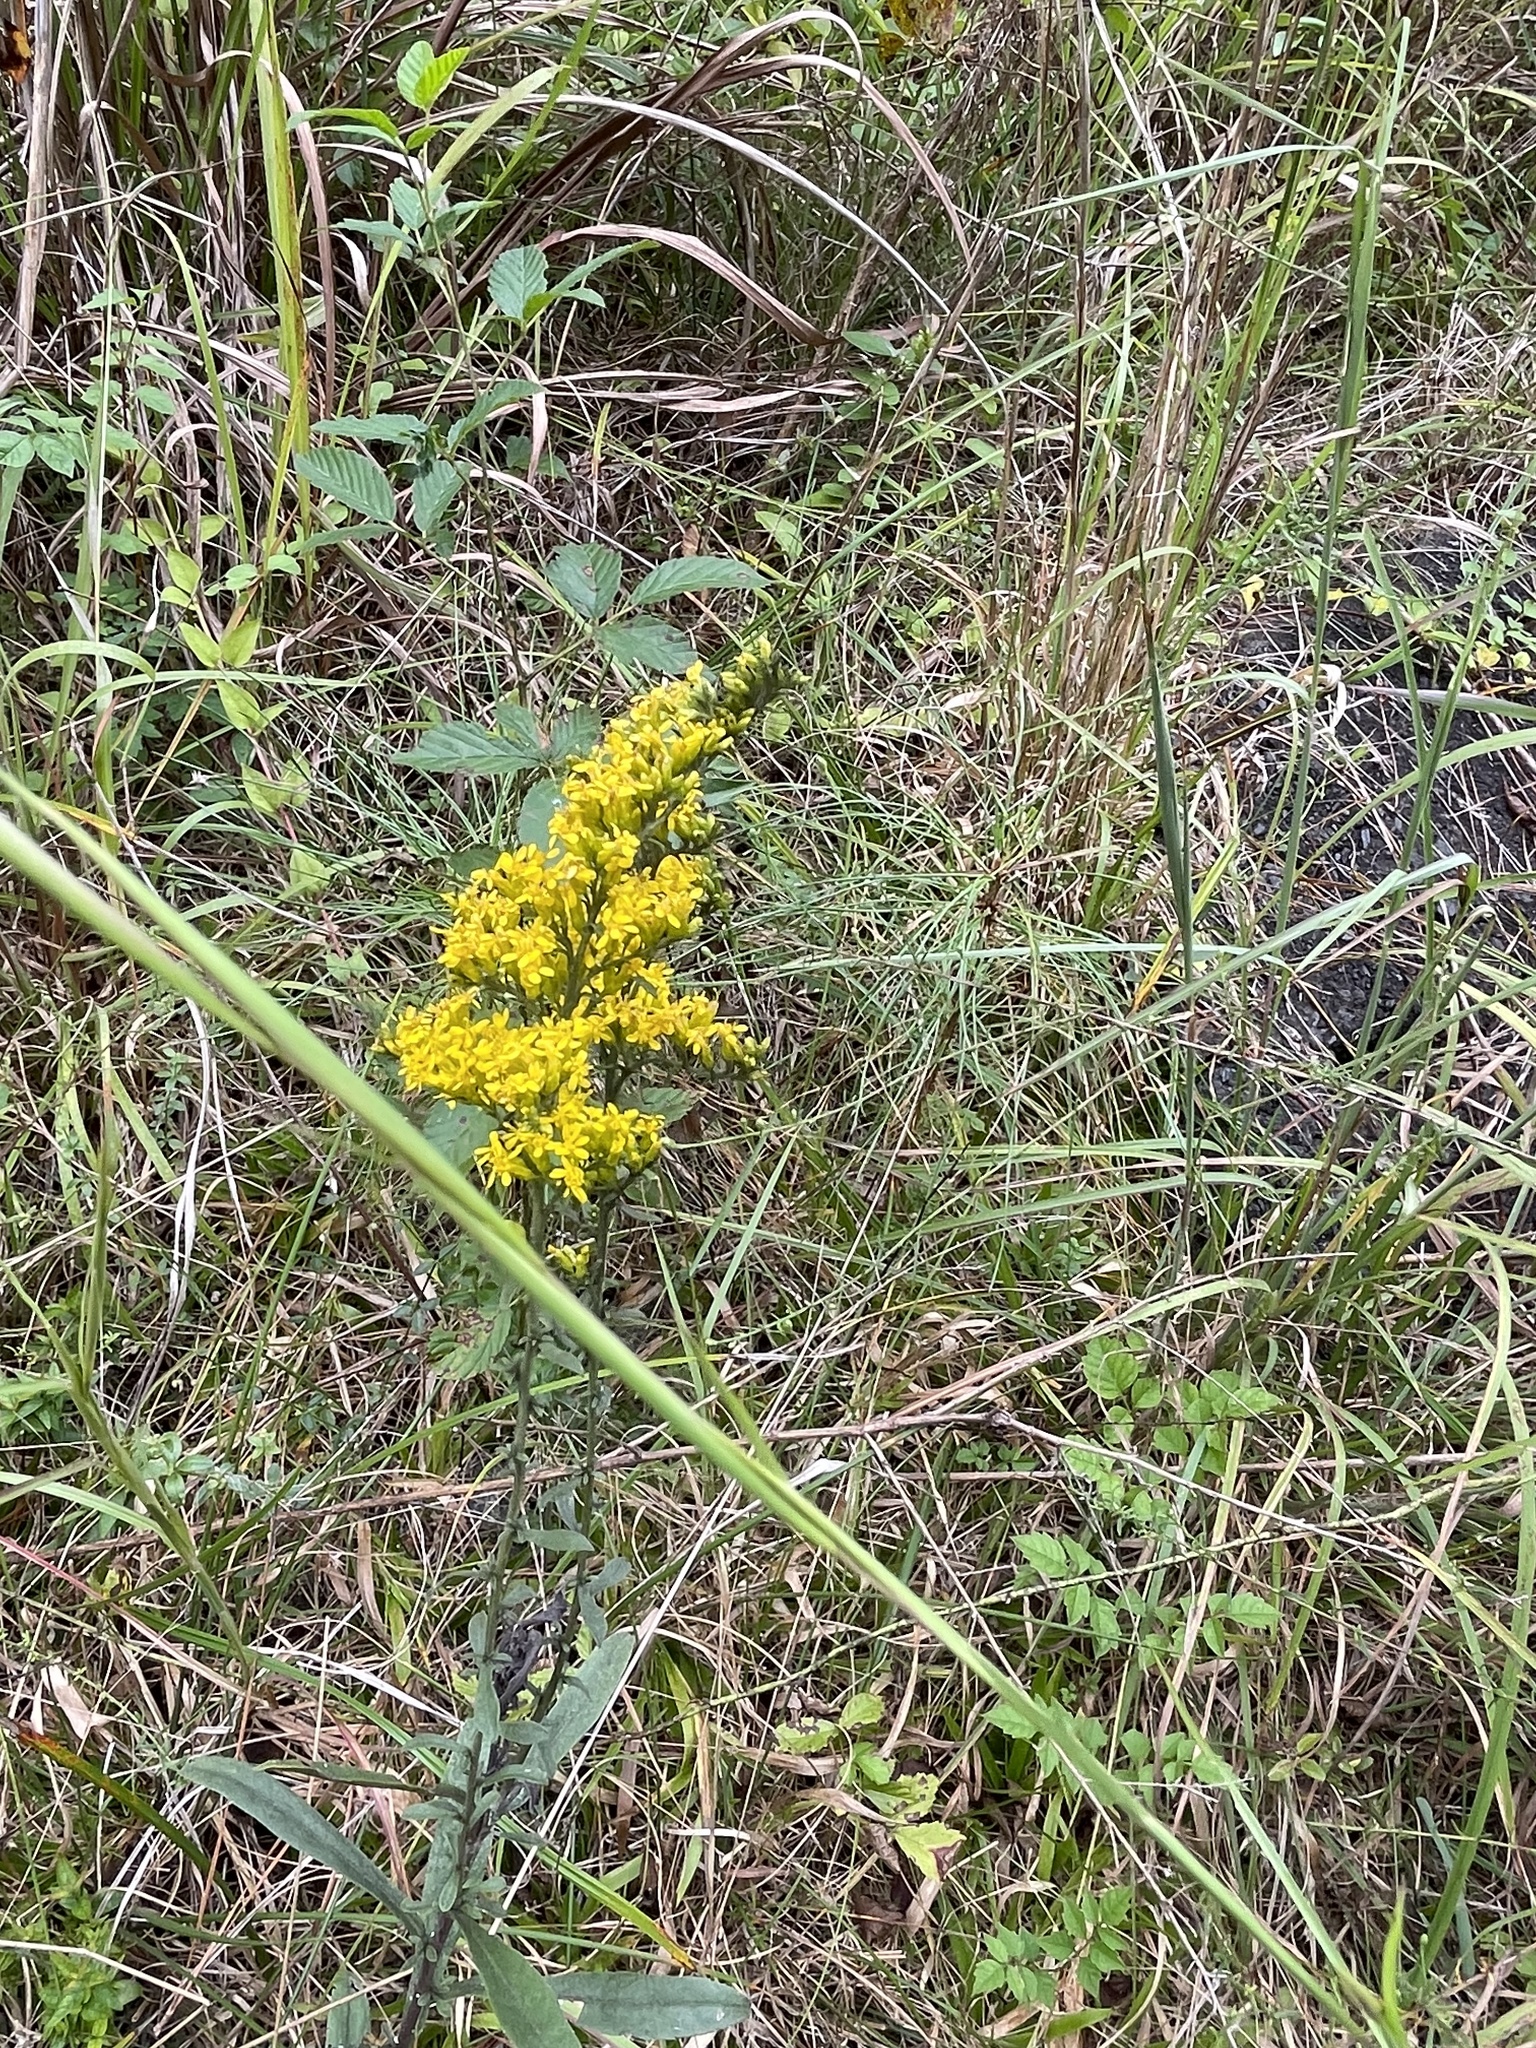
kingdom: Plantae
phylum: Tracheophyta
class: Magnoliopsida
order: Asterales
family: Asteraceae
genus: Solidago
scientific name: Solidago nemoralis
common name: Grey goldenrod
